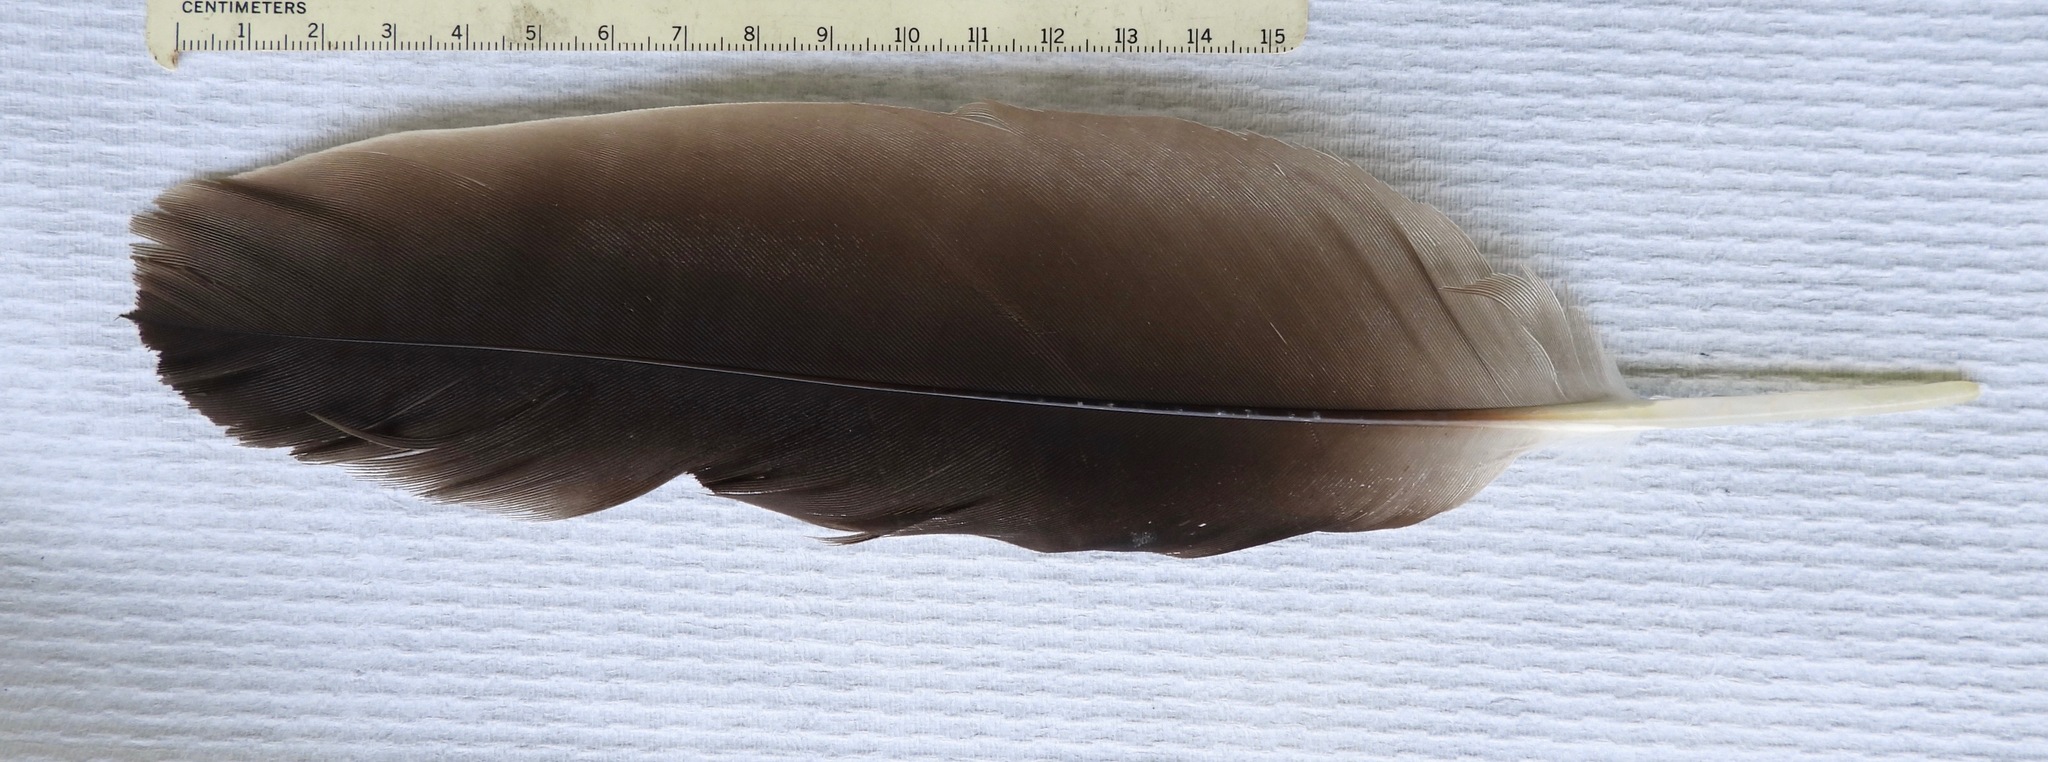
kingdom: Animalia
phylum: Chordata
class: Aves
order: Accipitriformes
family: Cathartidae
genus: Cathartes
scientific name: Cathartes aura
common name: Turkey vulture
